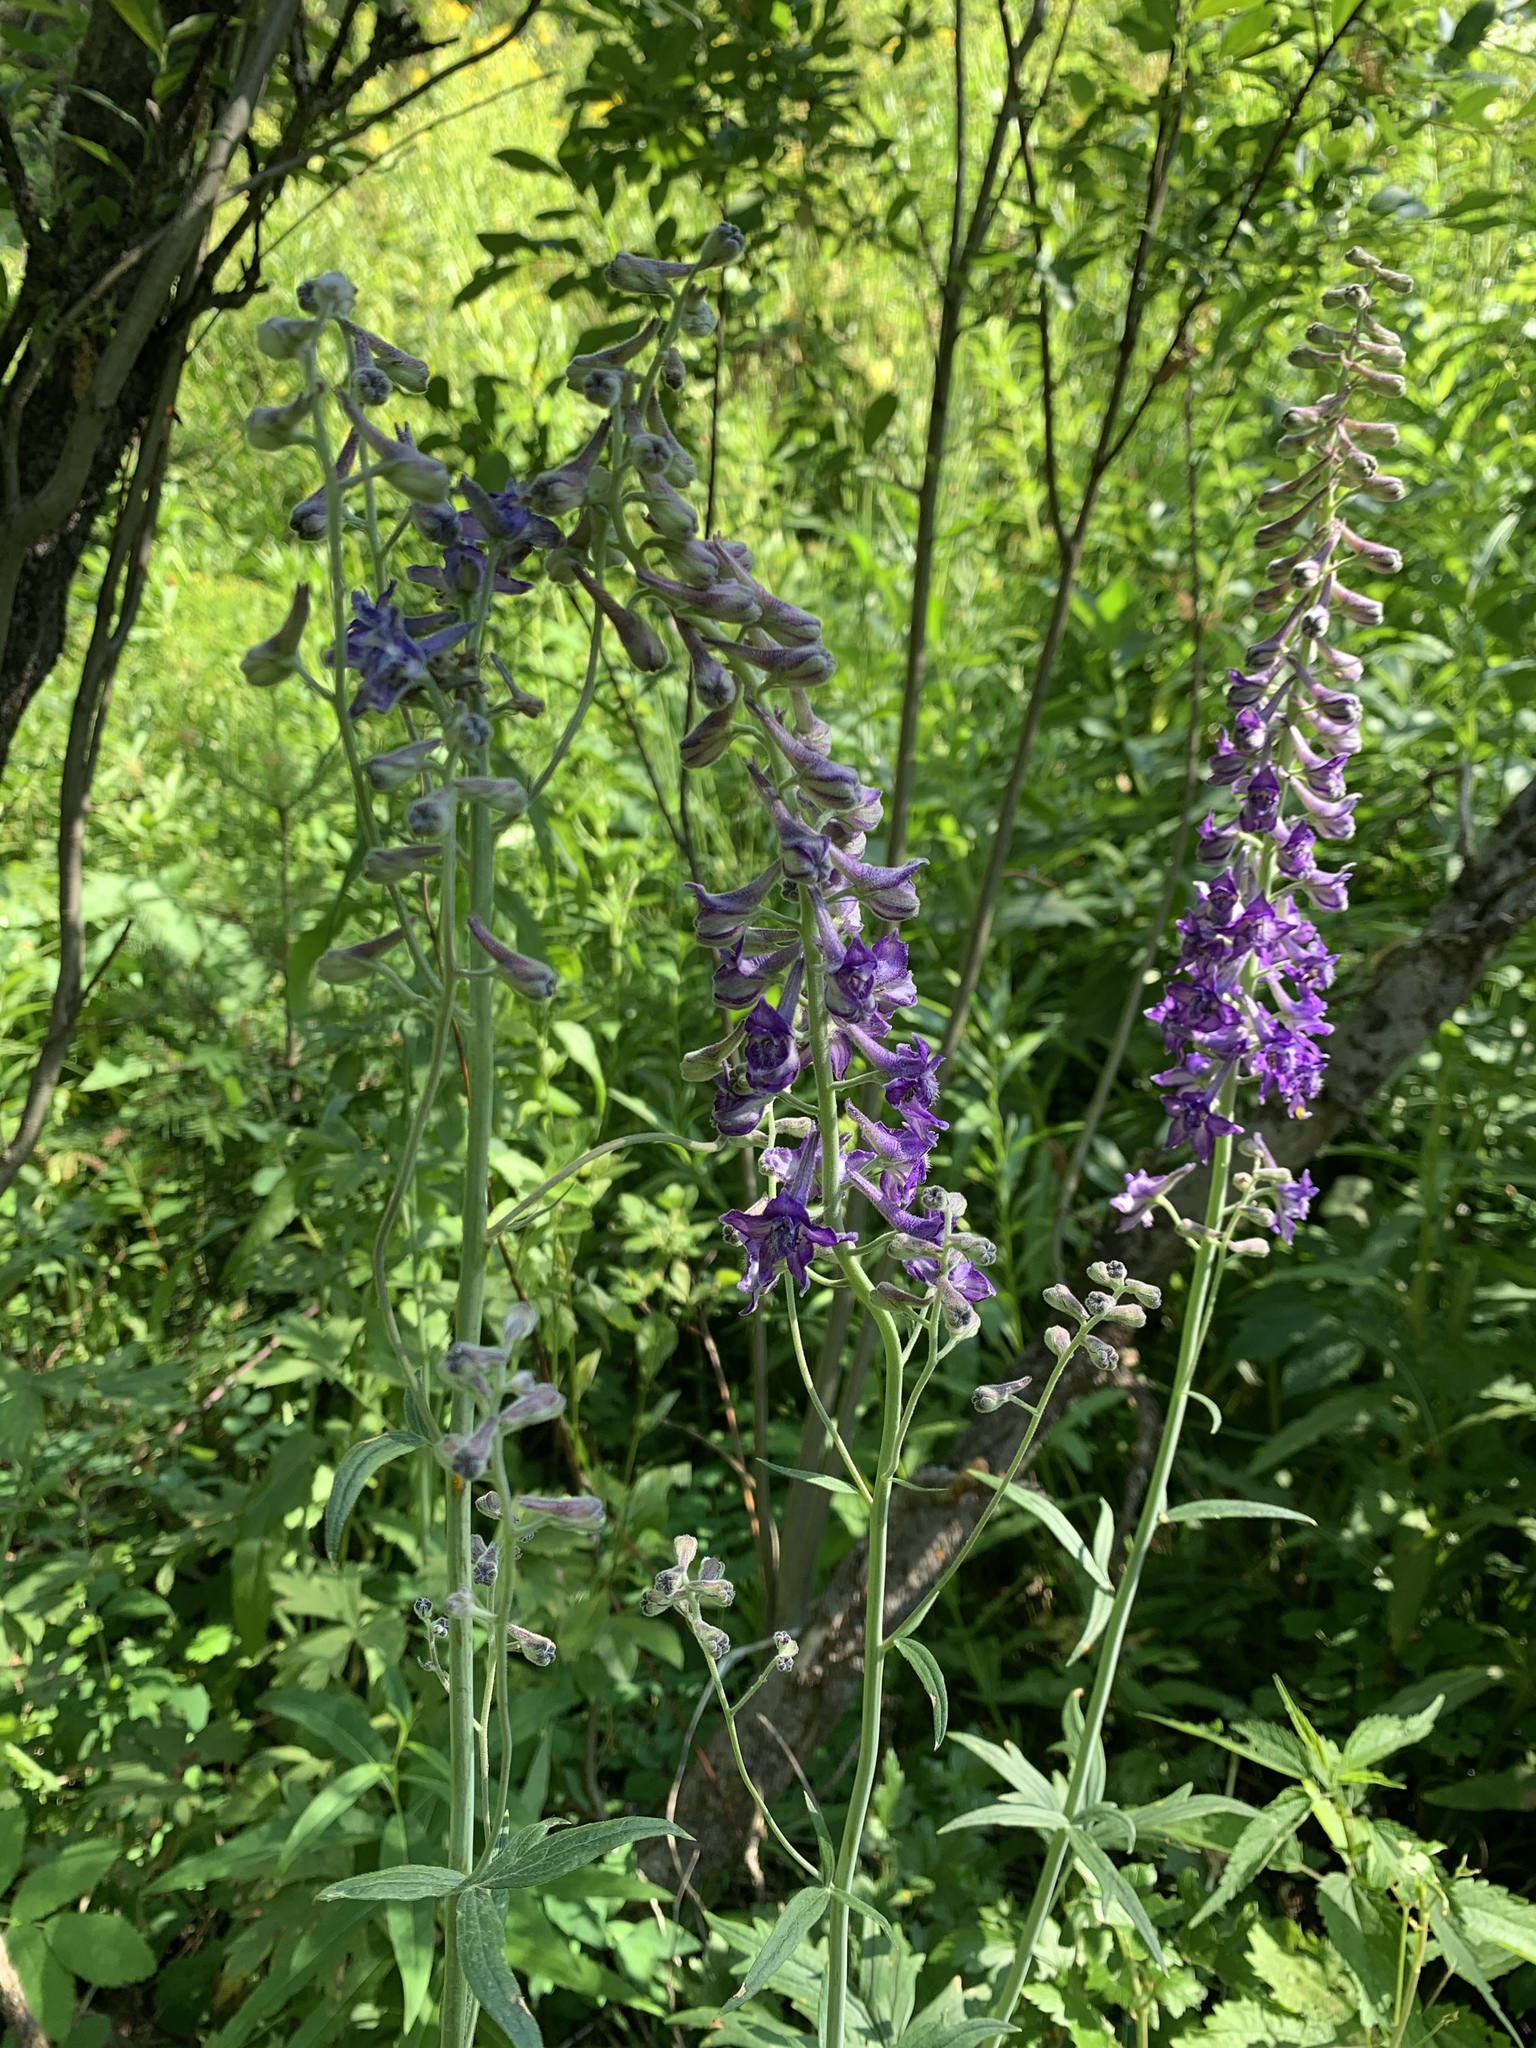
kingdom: Plantae
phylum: Tracheophyta
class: Magnoliopsida
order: Ranunculales
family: Ranunculaceae
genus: Delphinium
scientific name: Delphinium occidentale
